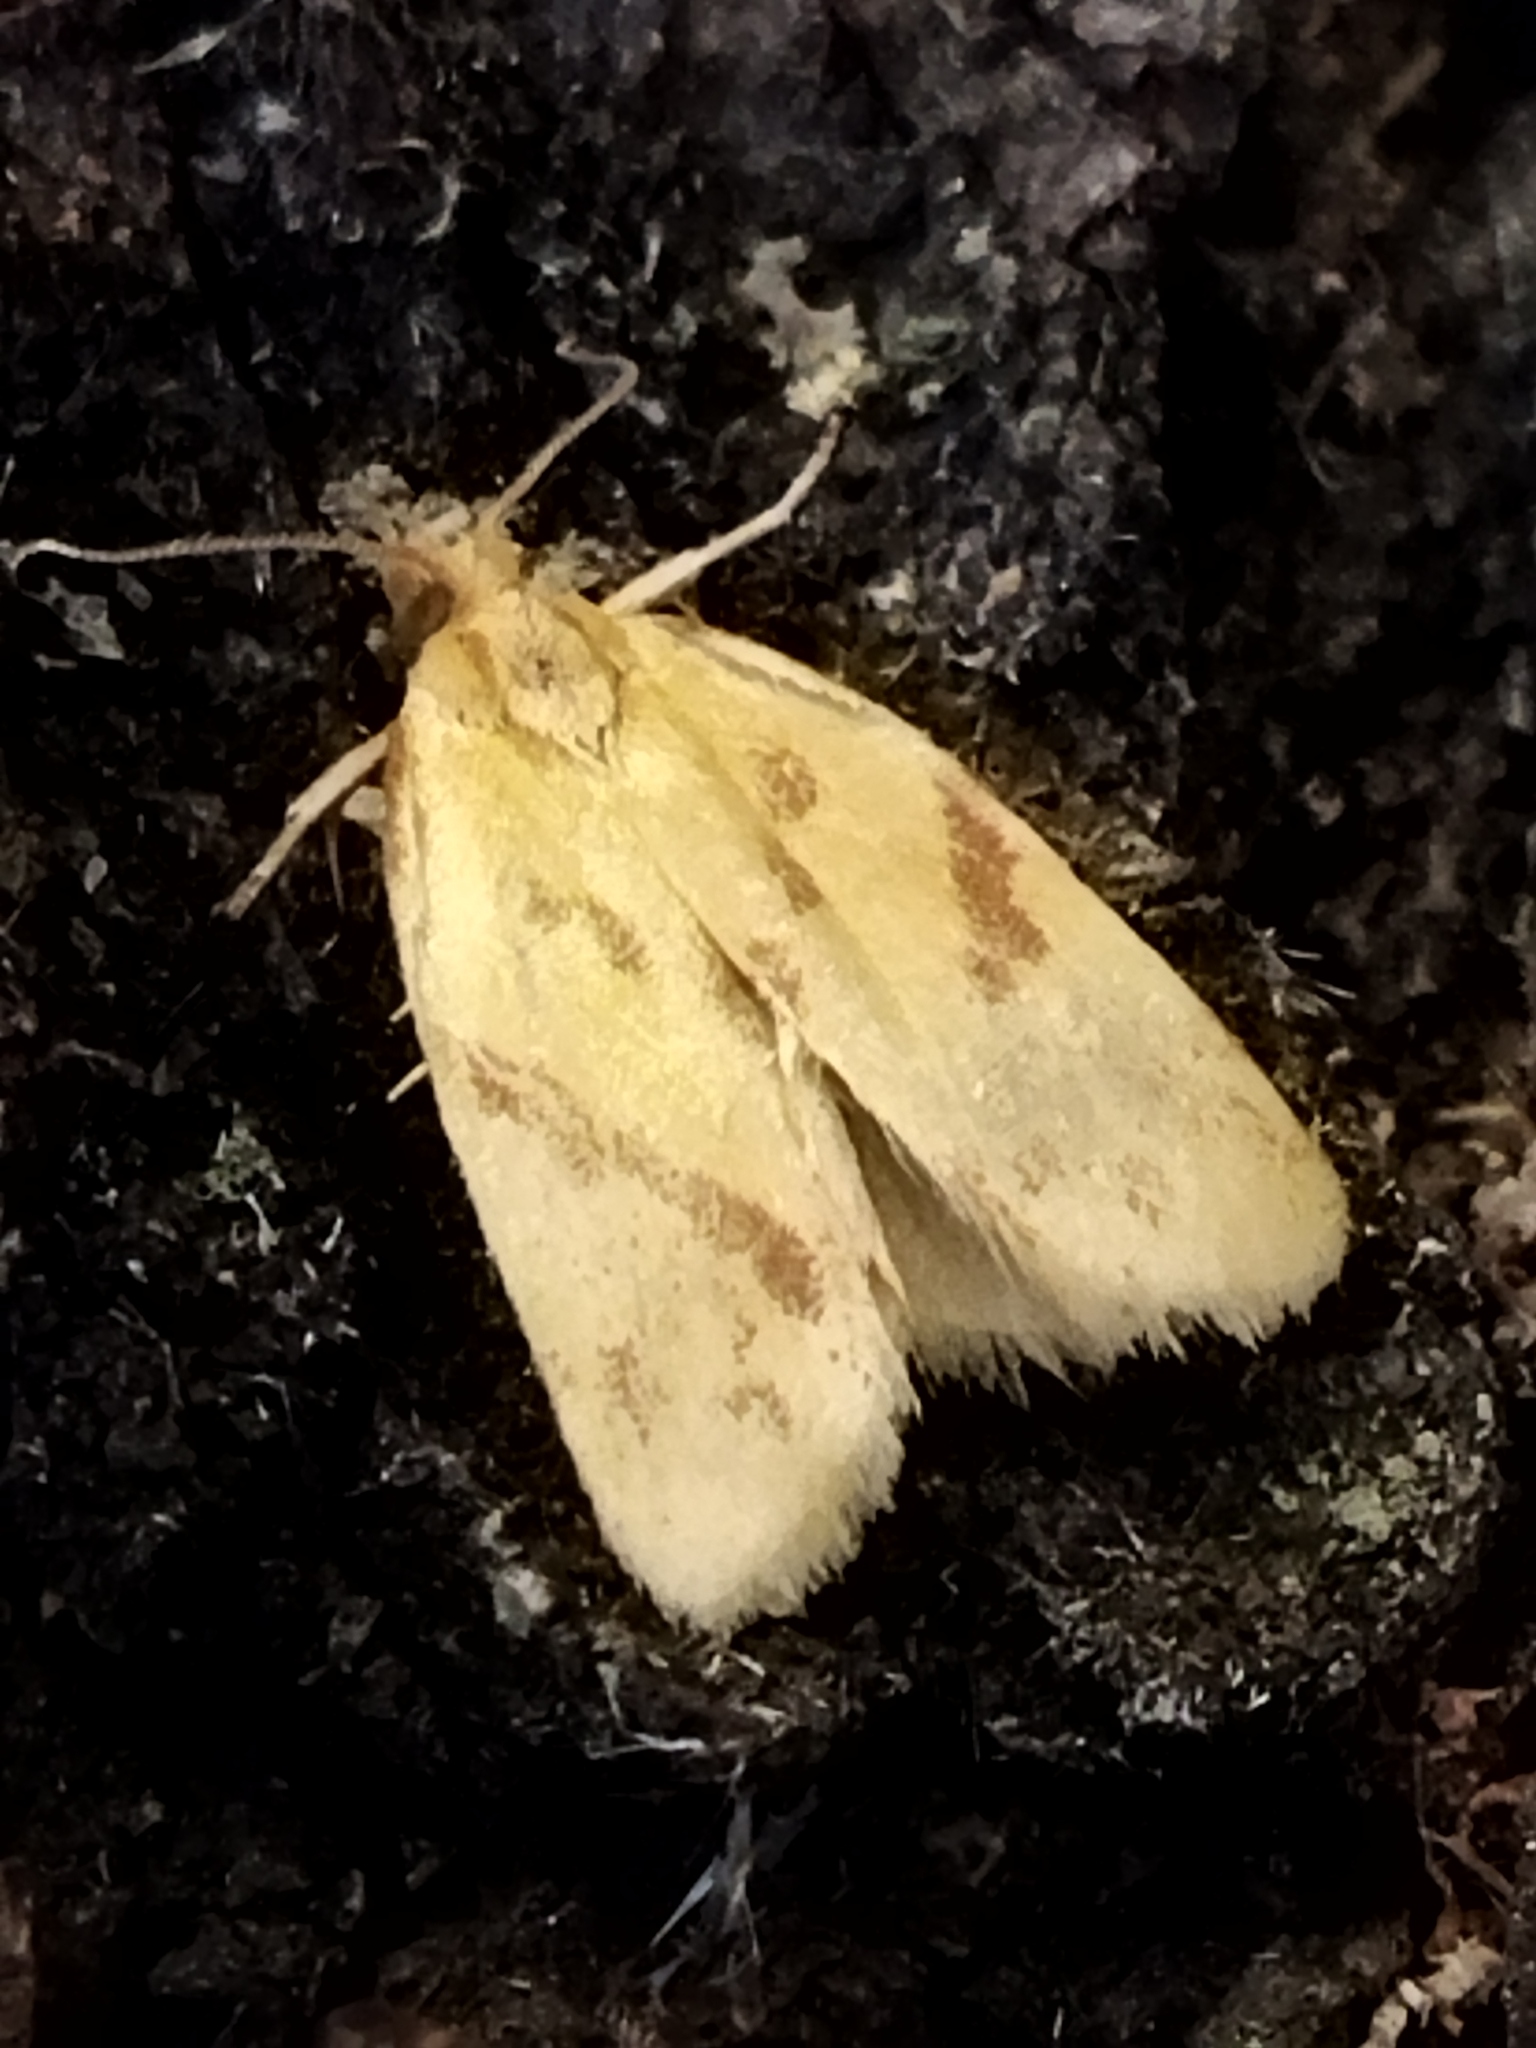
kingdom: Animalia
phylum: Arthropoda
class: Insecta
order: Lepidoptera
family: Tortricidae
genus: Clepsis
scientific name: Clepsis pallidana
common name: Sheep's-bit conch
